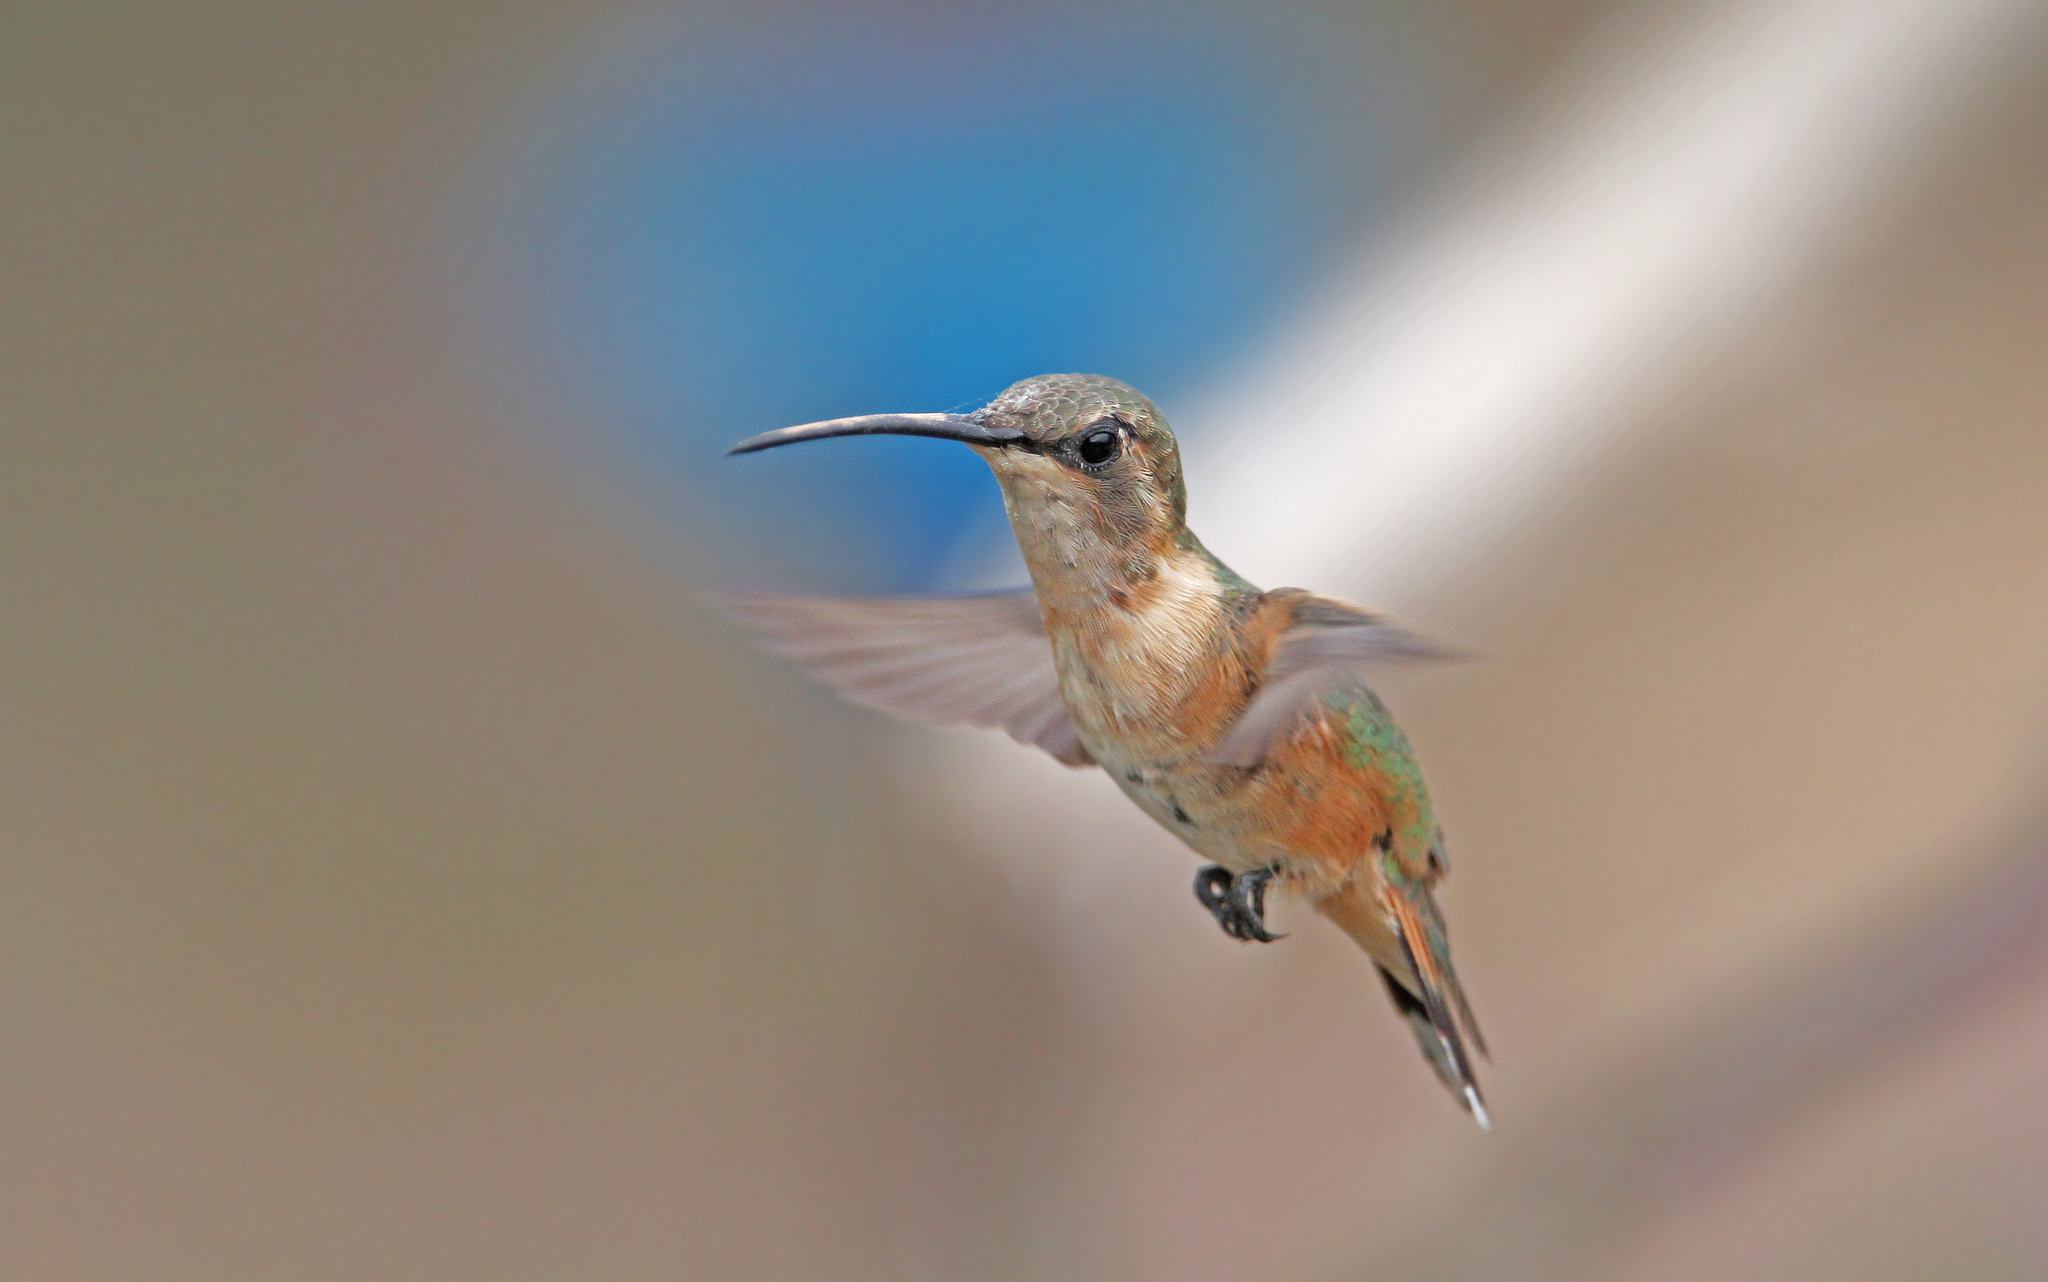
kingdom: Animalia
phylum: Chordata
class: Aves
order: Apodiformes
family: Trochilidae
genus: Calothorax
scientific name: Calothorax lucifer
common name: Lucifer sheartail
